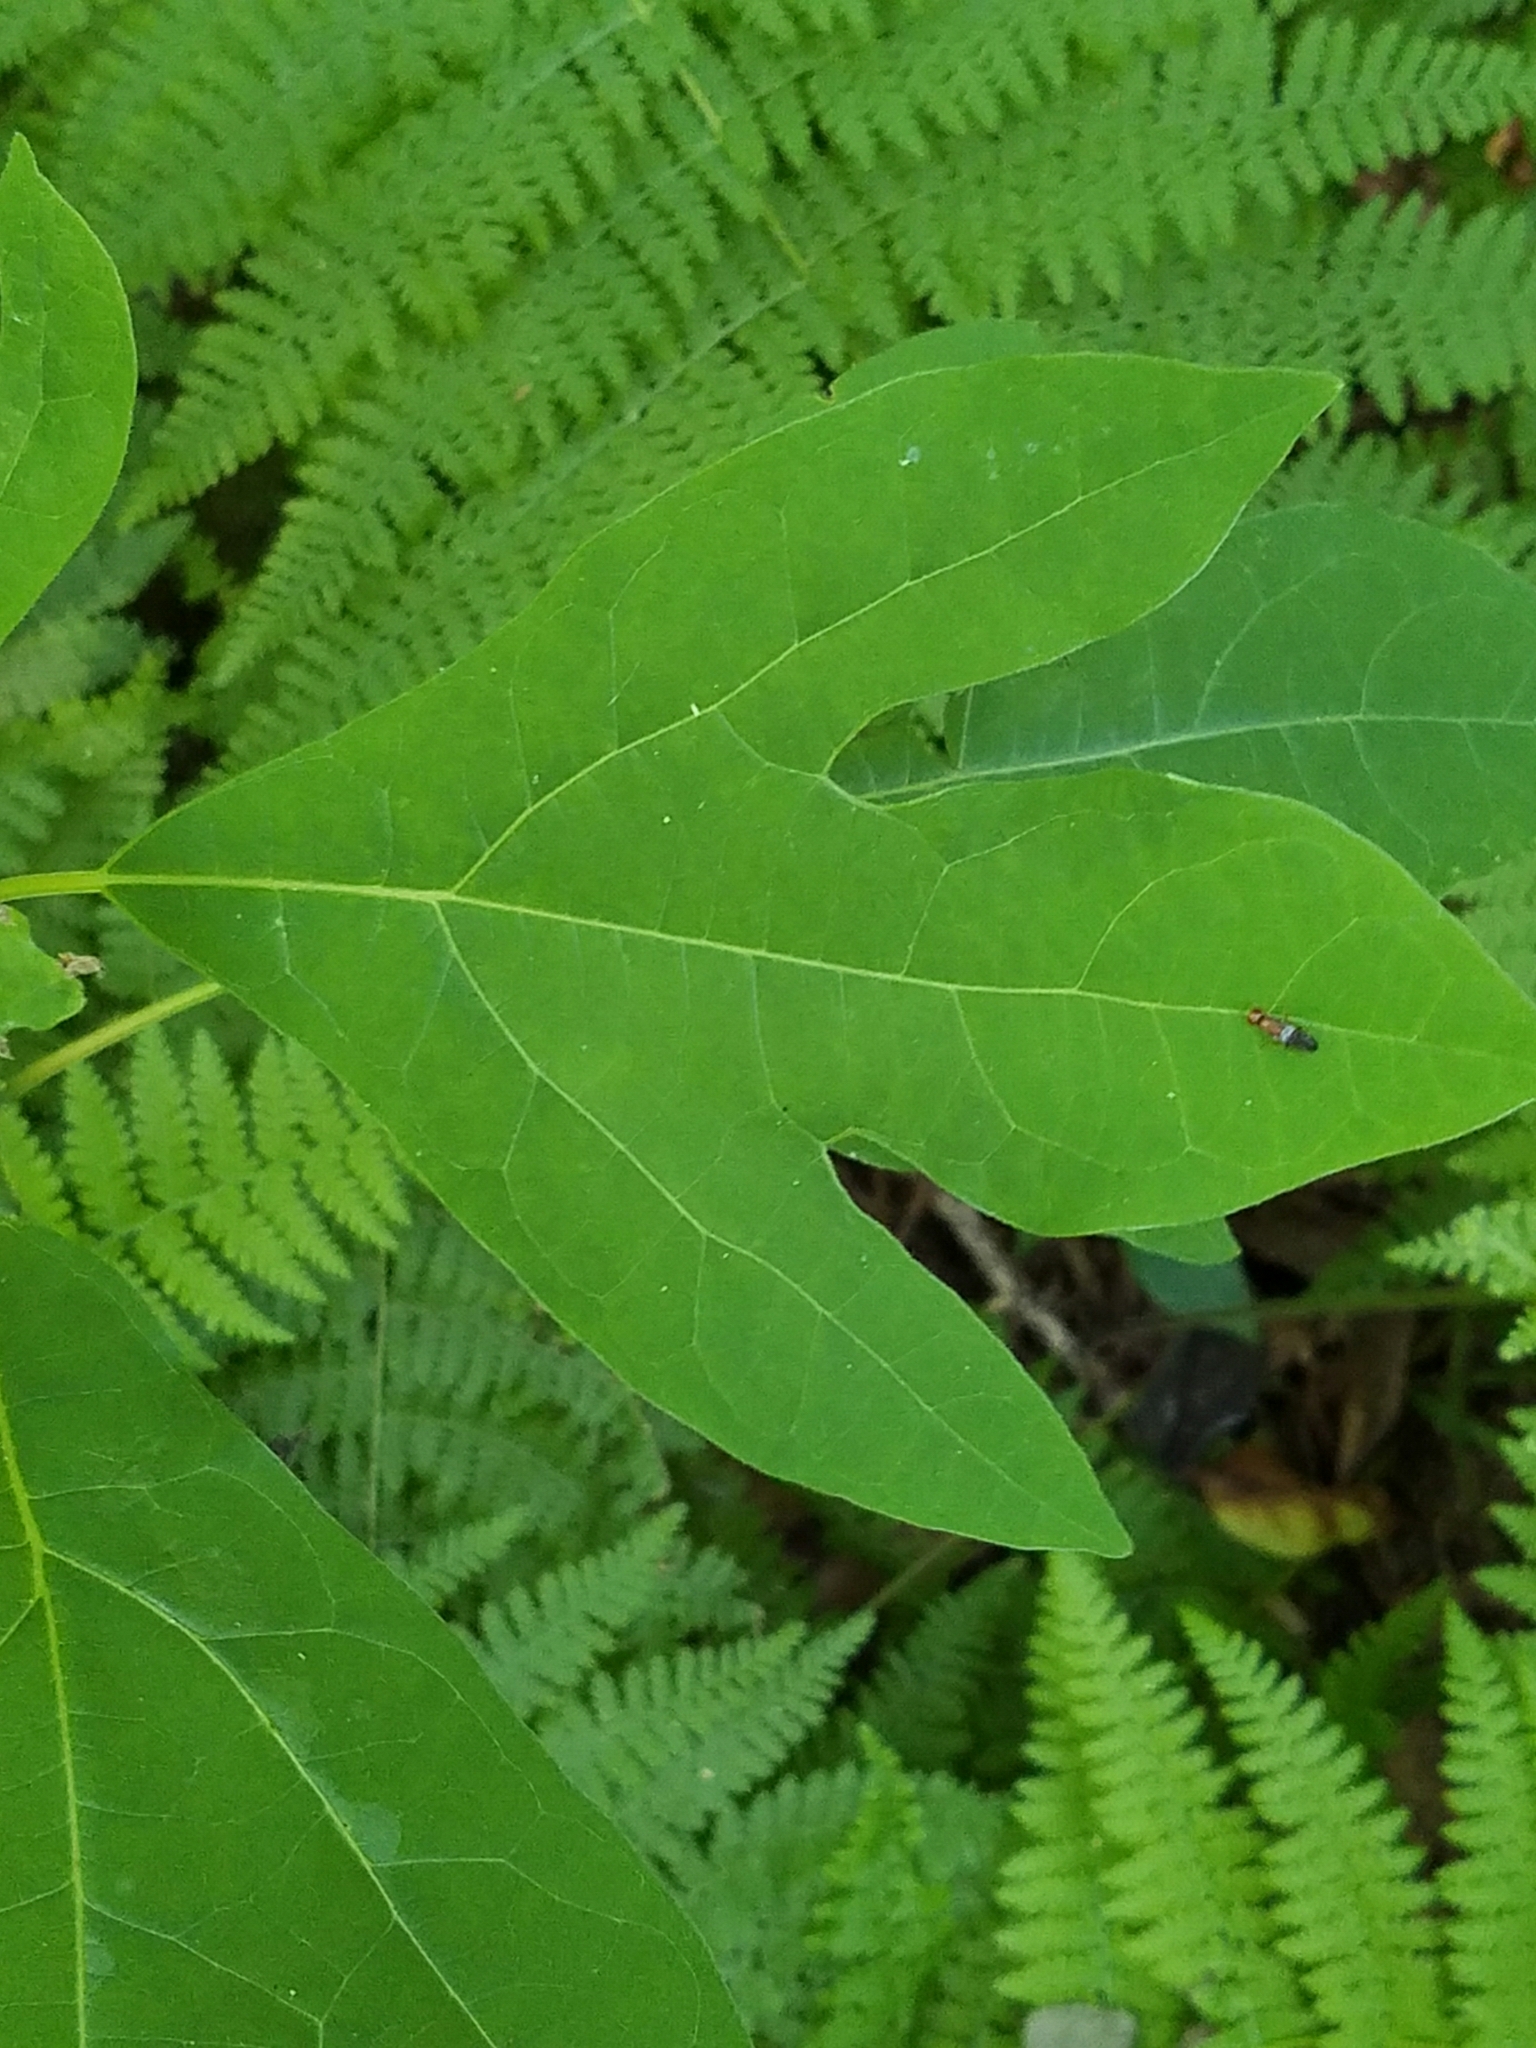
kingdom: Plantae
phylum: Tracheophyta
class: Magnoliopsida
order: Laurales
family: Lauraceae
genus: Sassafras
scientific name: Sassafras albidum
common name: Sassafras
